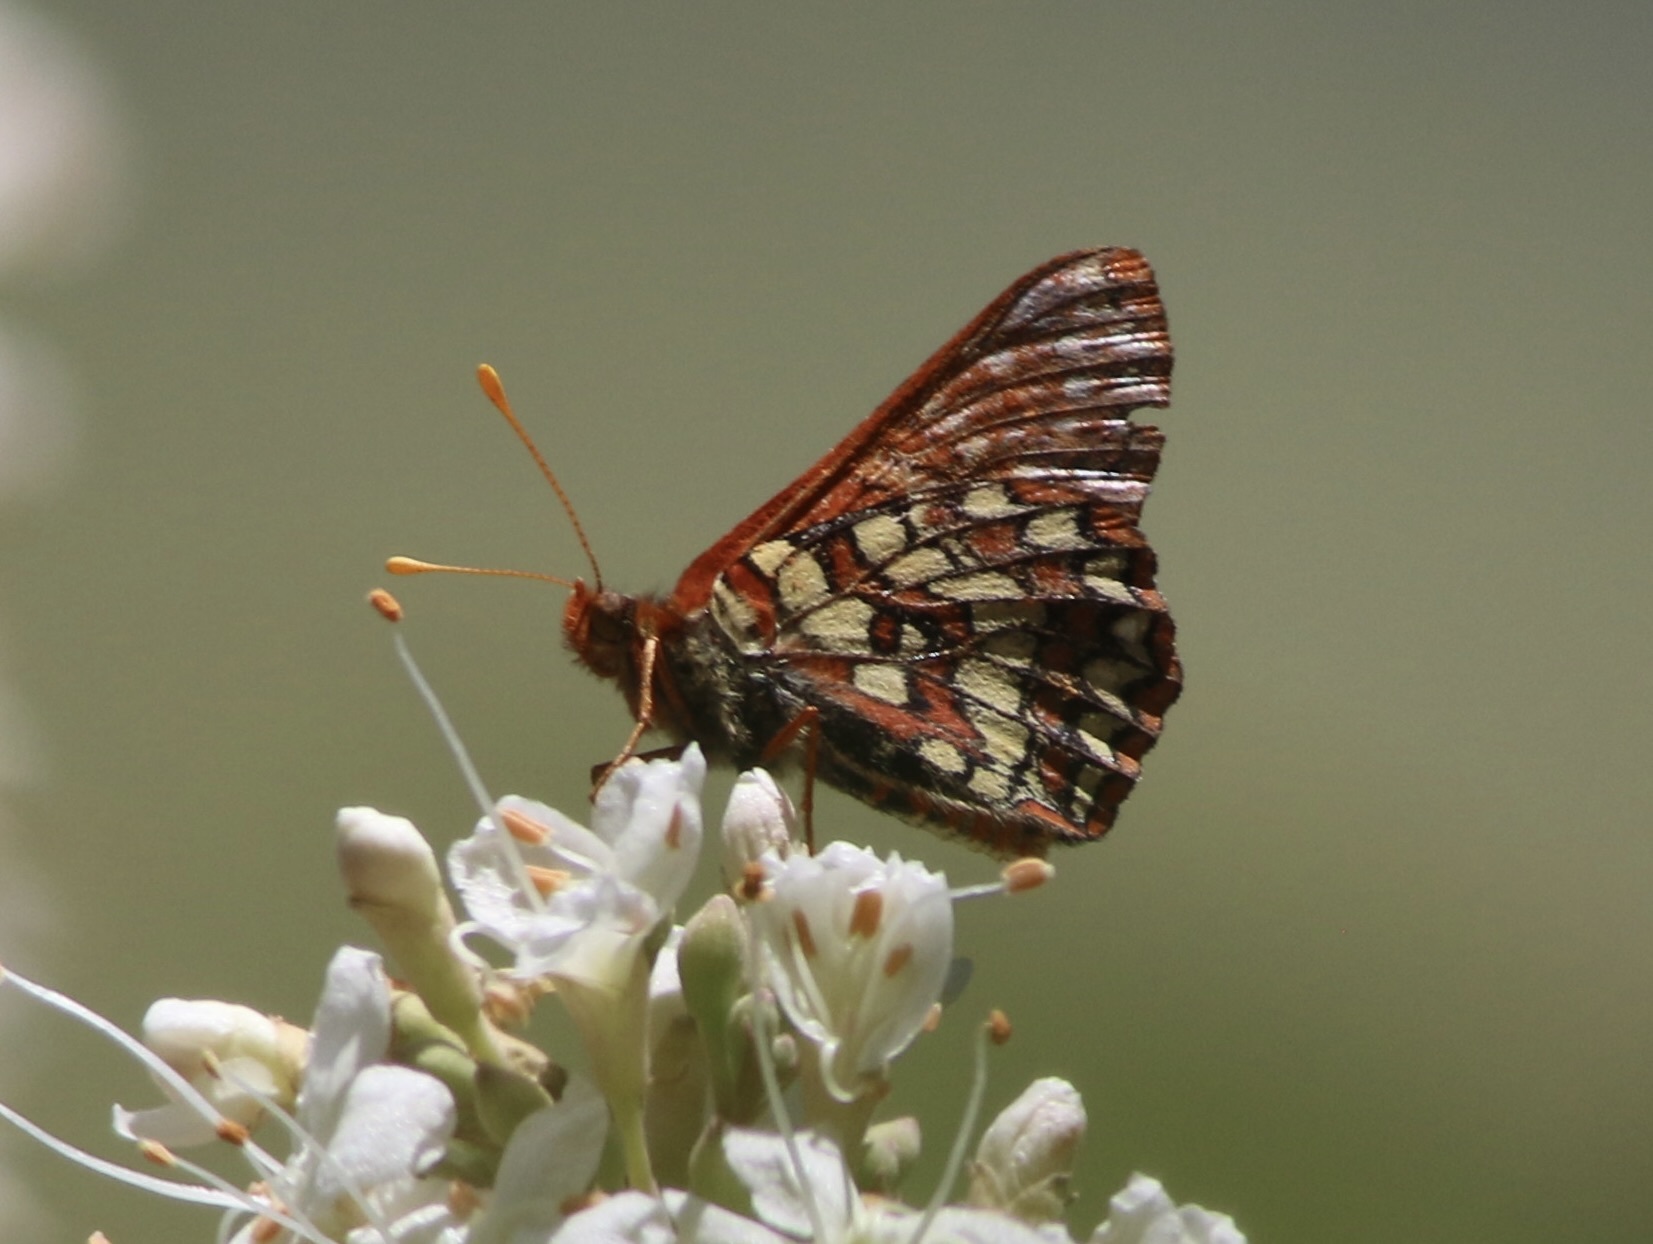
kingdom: Animalia
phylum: Arthropoda
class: Insecta
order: Lepidoptera
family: Nymphalidae
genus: Occidryas
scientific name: Occidryas chalcedona
